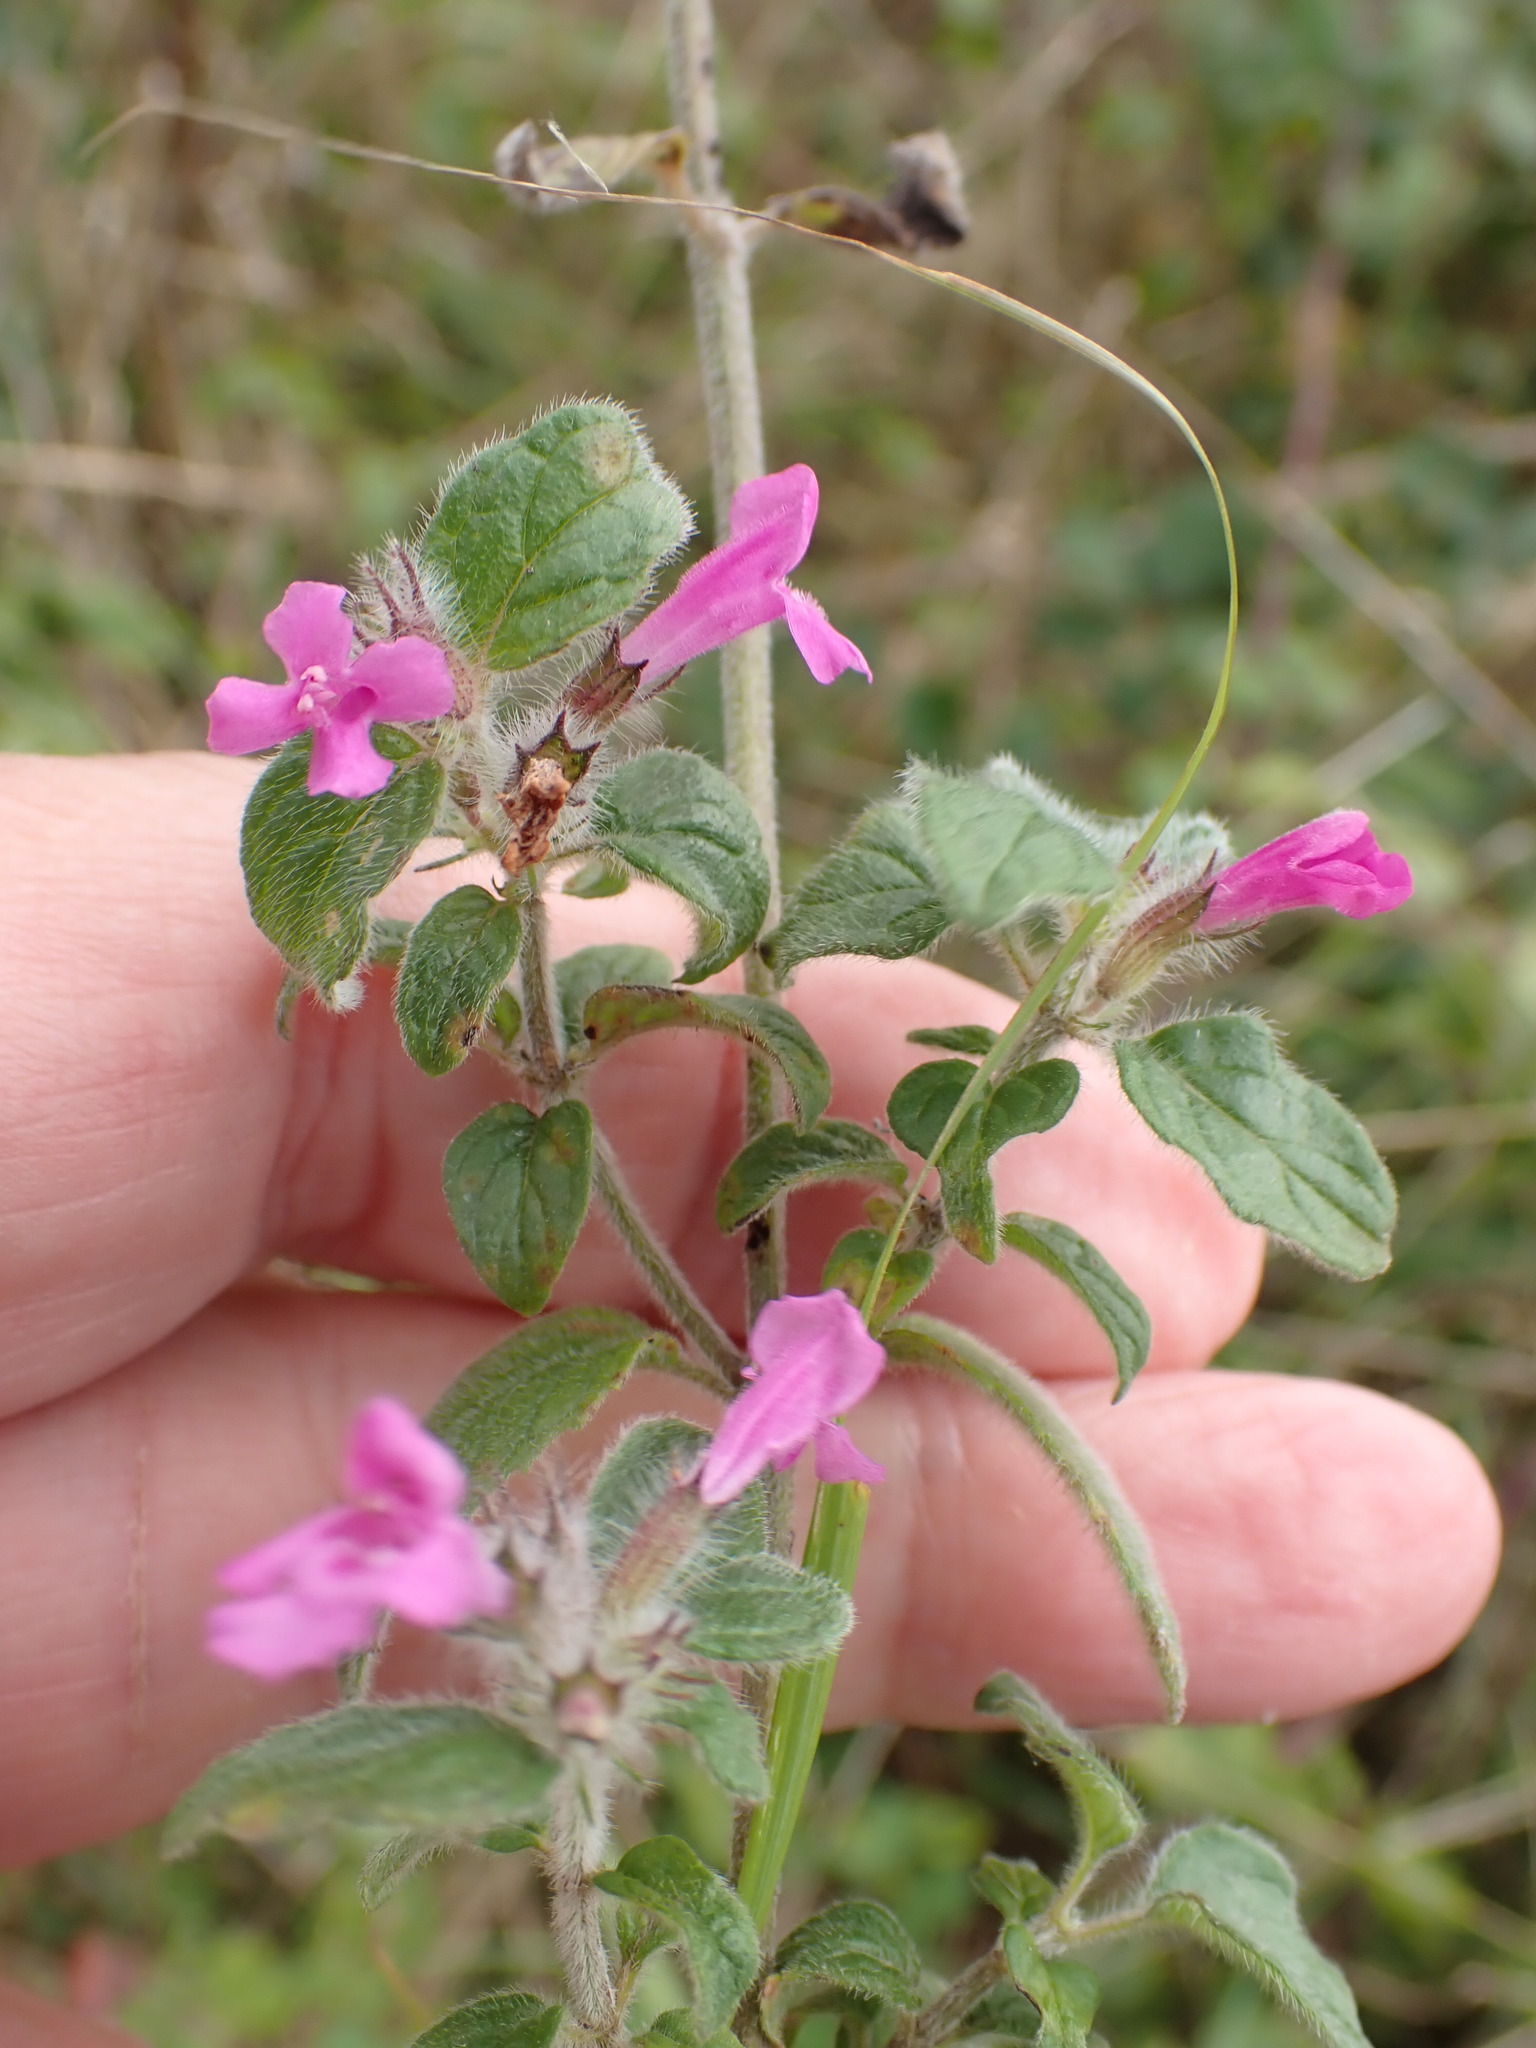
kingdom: Plantae
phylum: Tracheophyta
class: Magnoliopsida
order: Lamiales
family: Lamiaceae
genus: Clinopodium
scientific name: Clinopodium vulgare
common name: Wild basil
